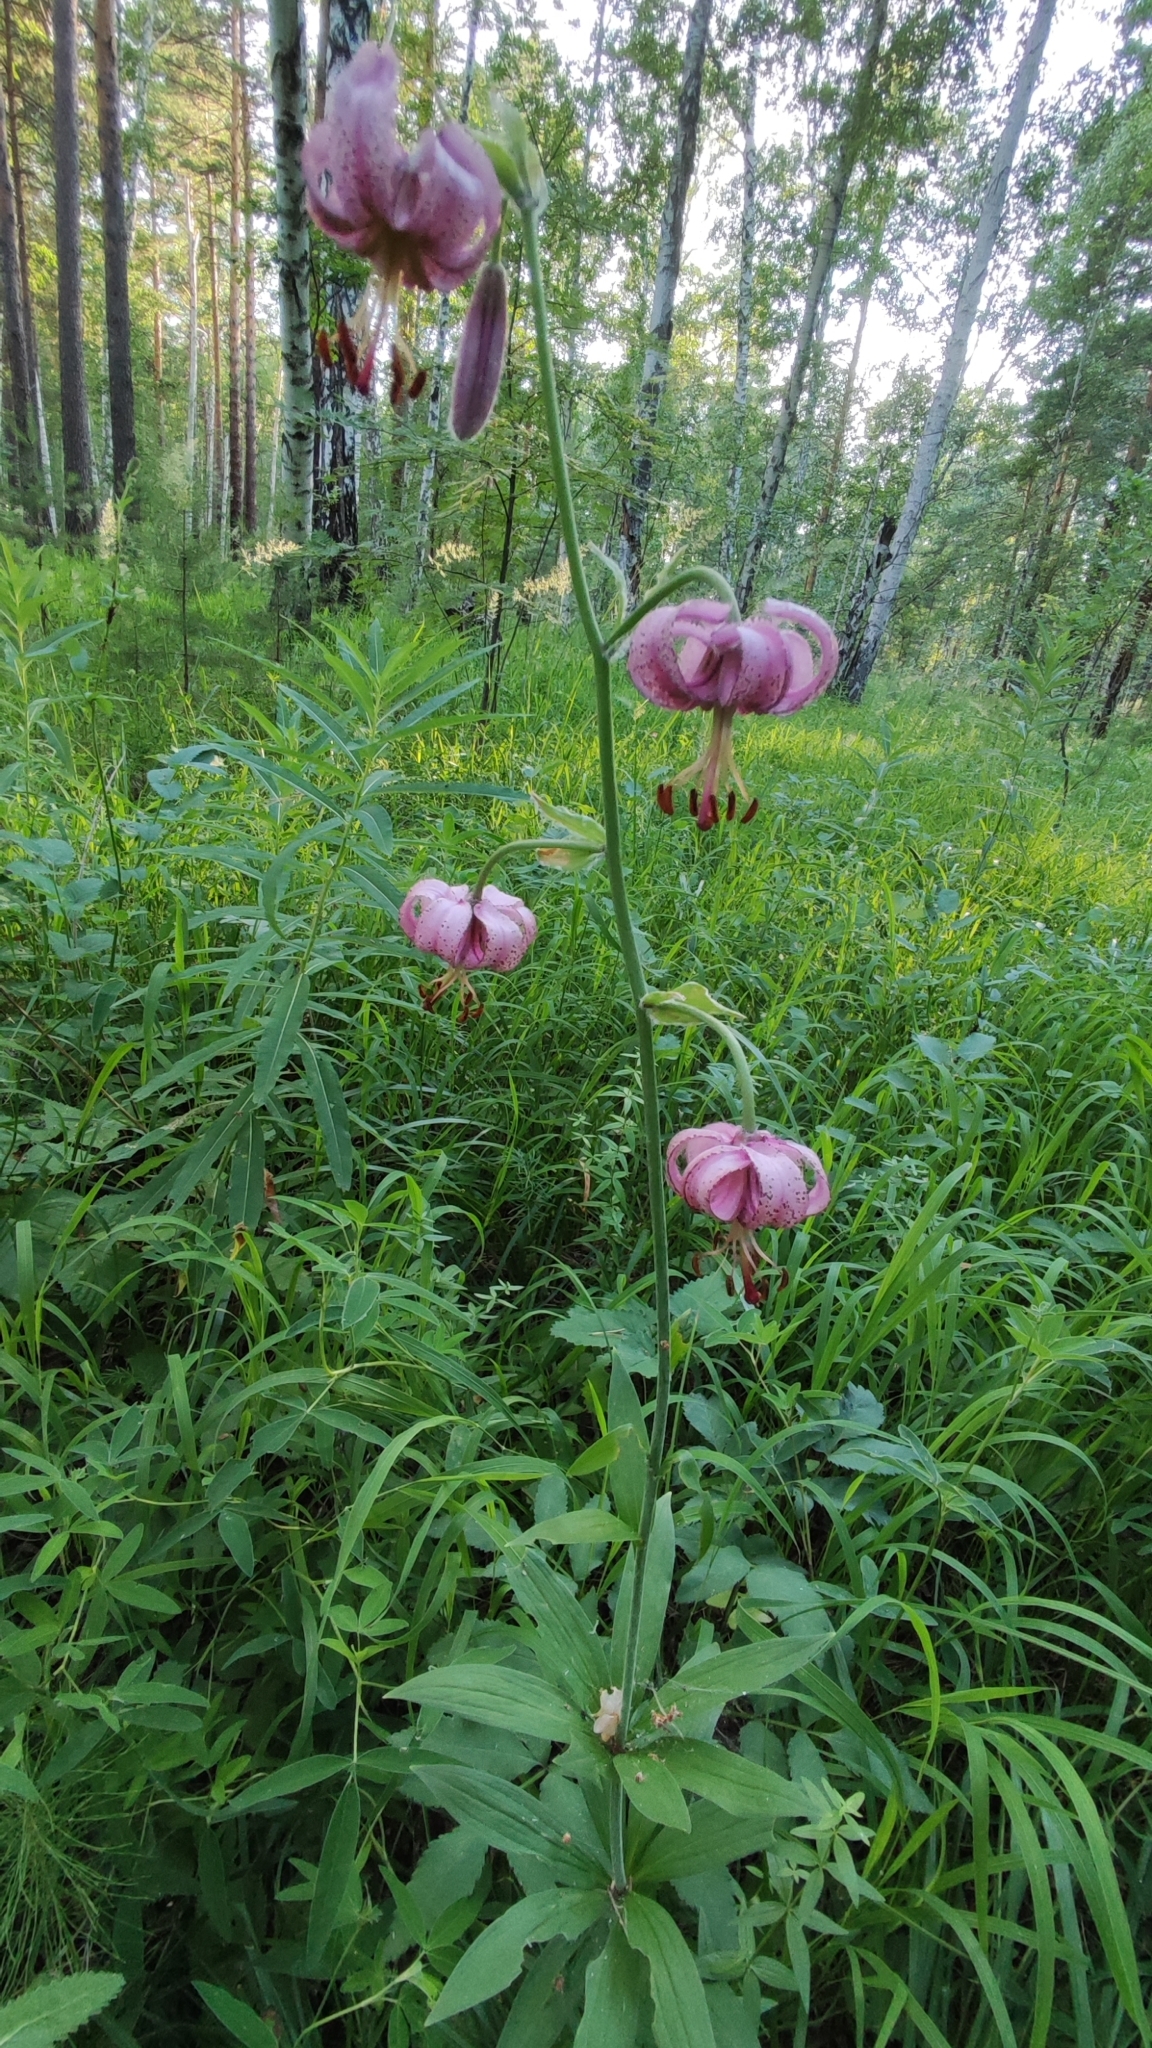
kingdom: Plantae
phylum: Tracheophyta
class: Liliopsida
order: Liliales
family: Liliaceae
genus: Lilium
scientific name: Lilium martagon
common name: Martagon lily
